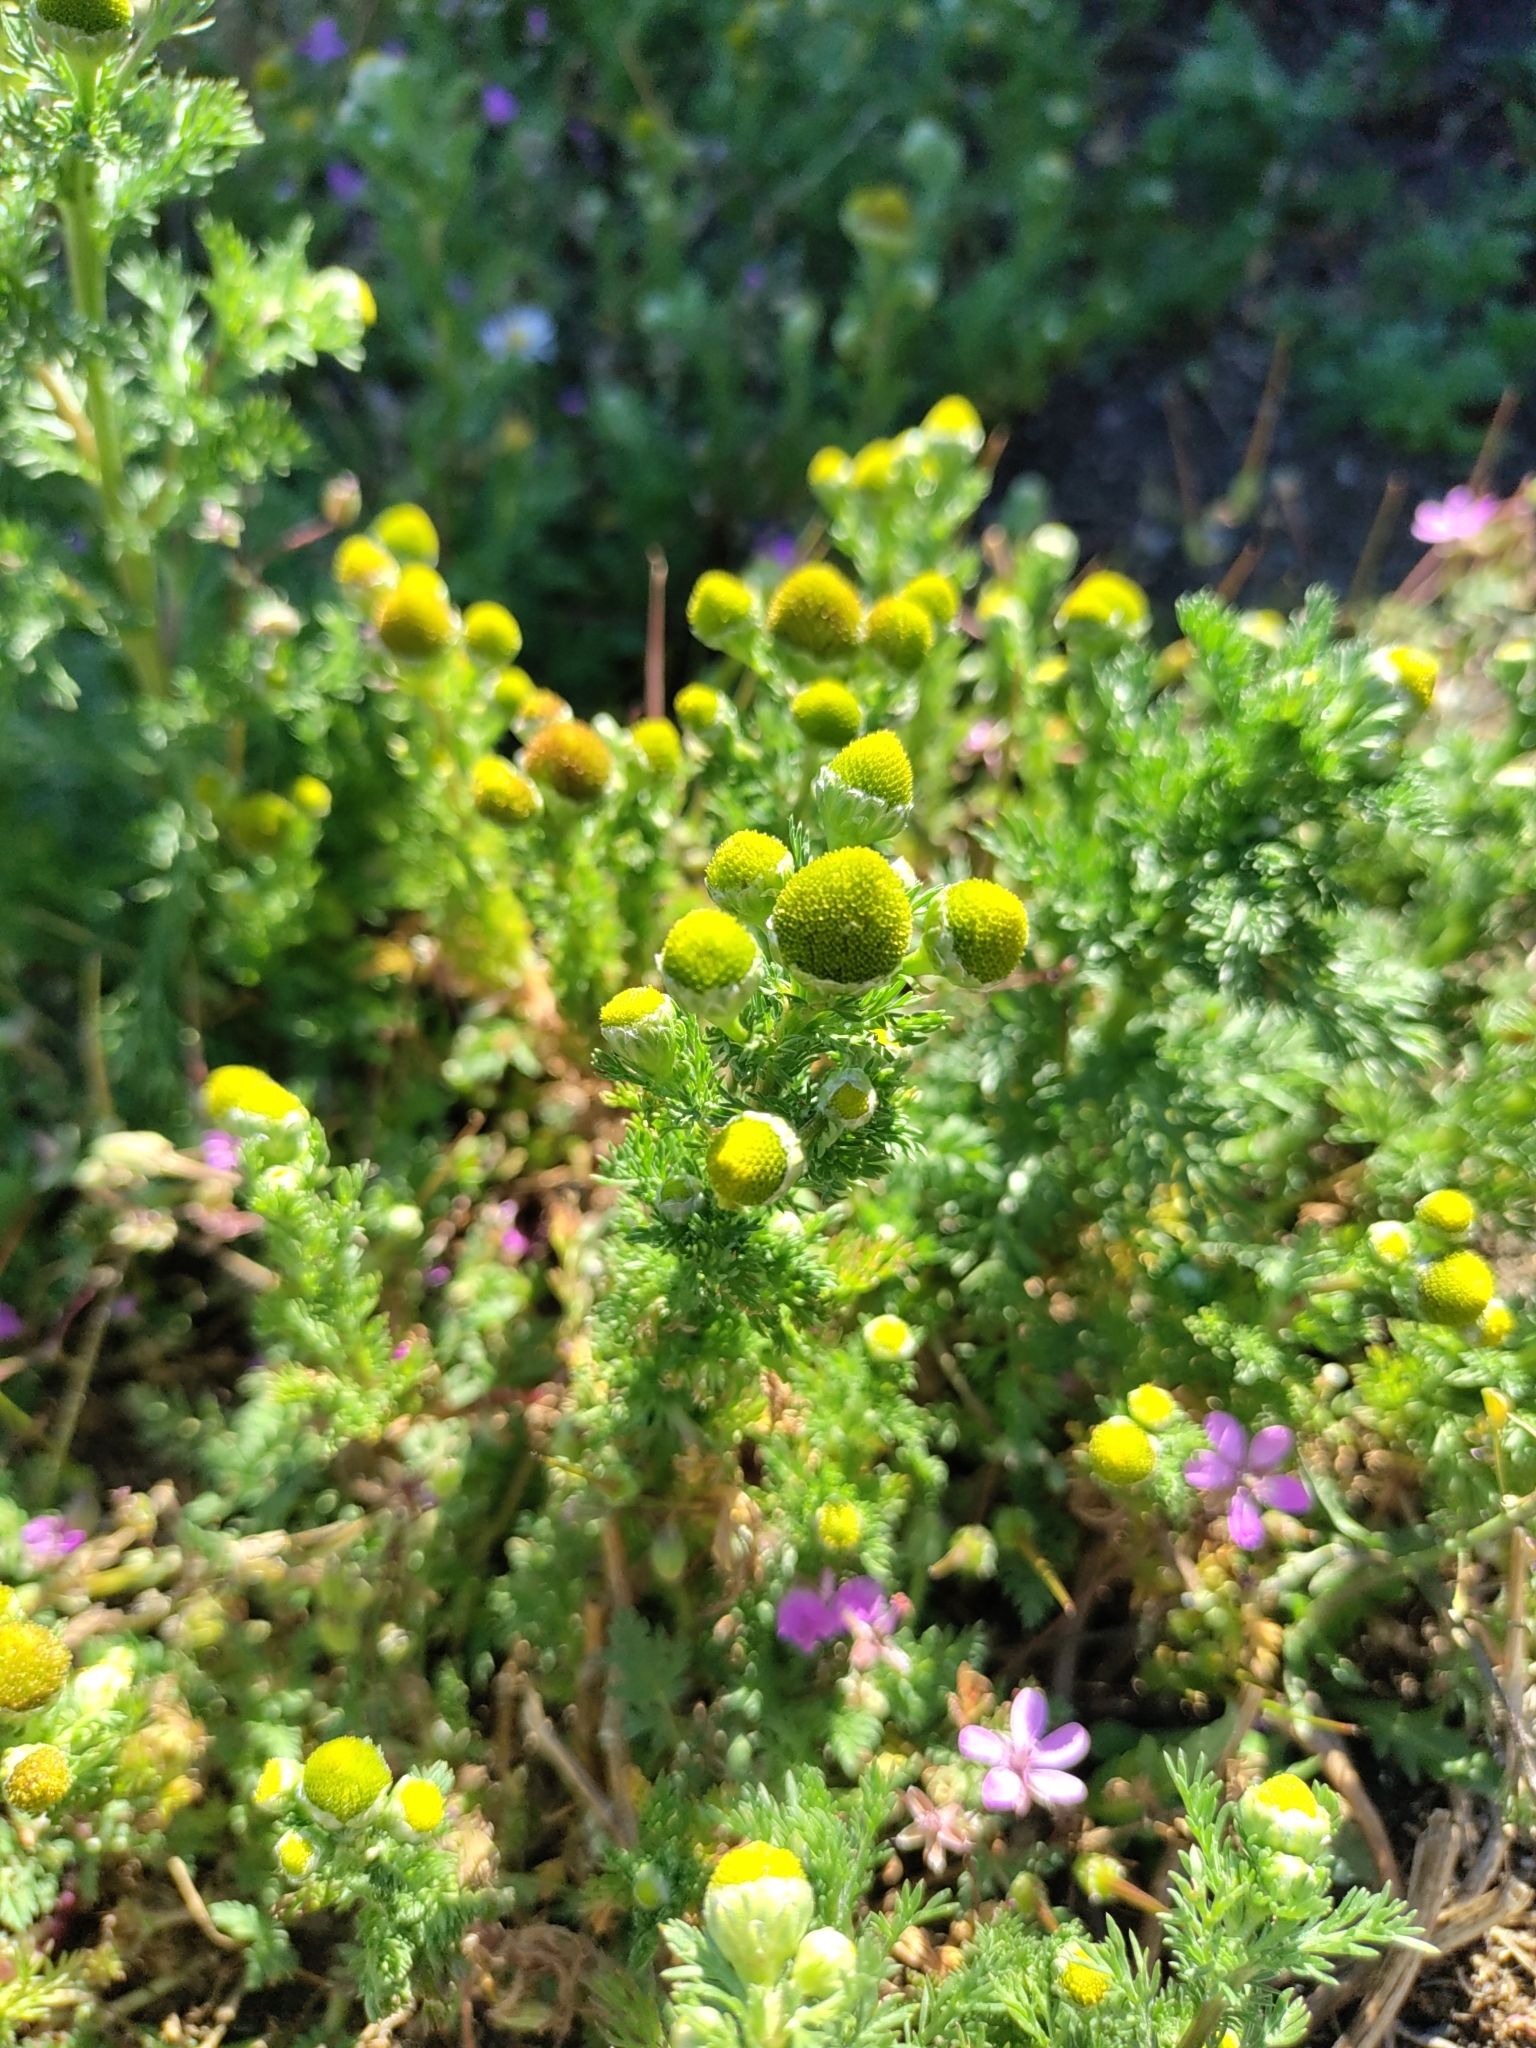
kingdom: Plantae
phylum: Tracheophyta
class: Magnoliopsida
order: Asterales
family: Asteraceae
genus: Matricaria
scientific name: Matricaria discoidea
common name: Disc mayweed
